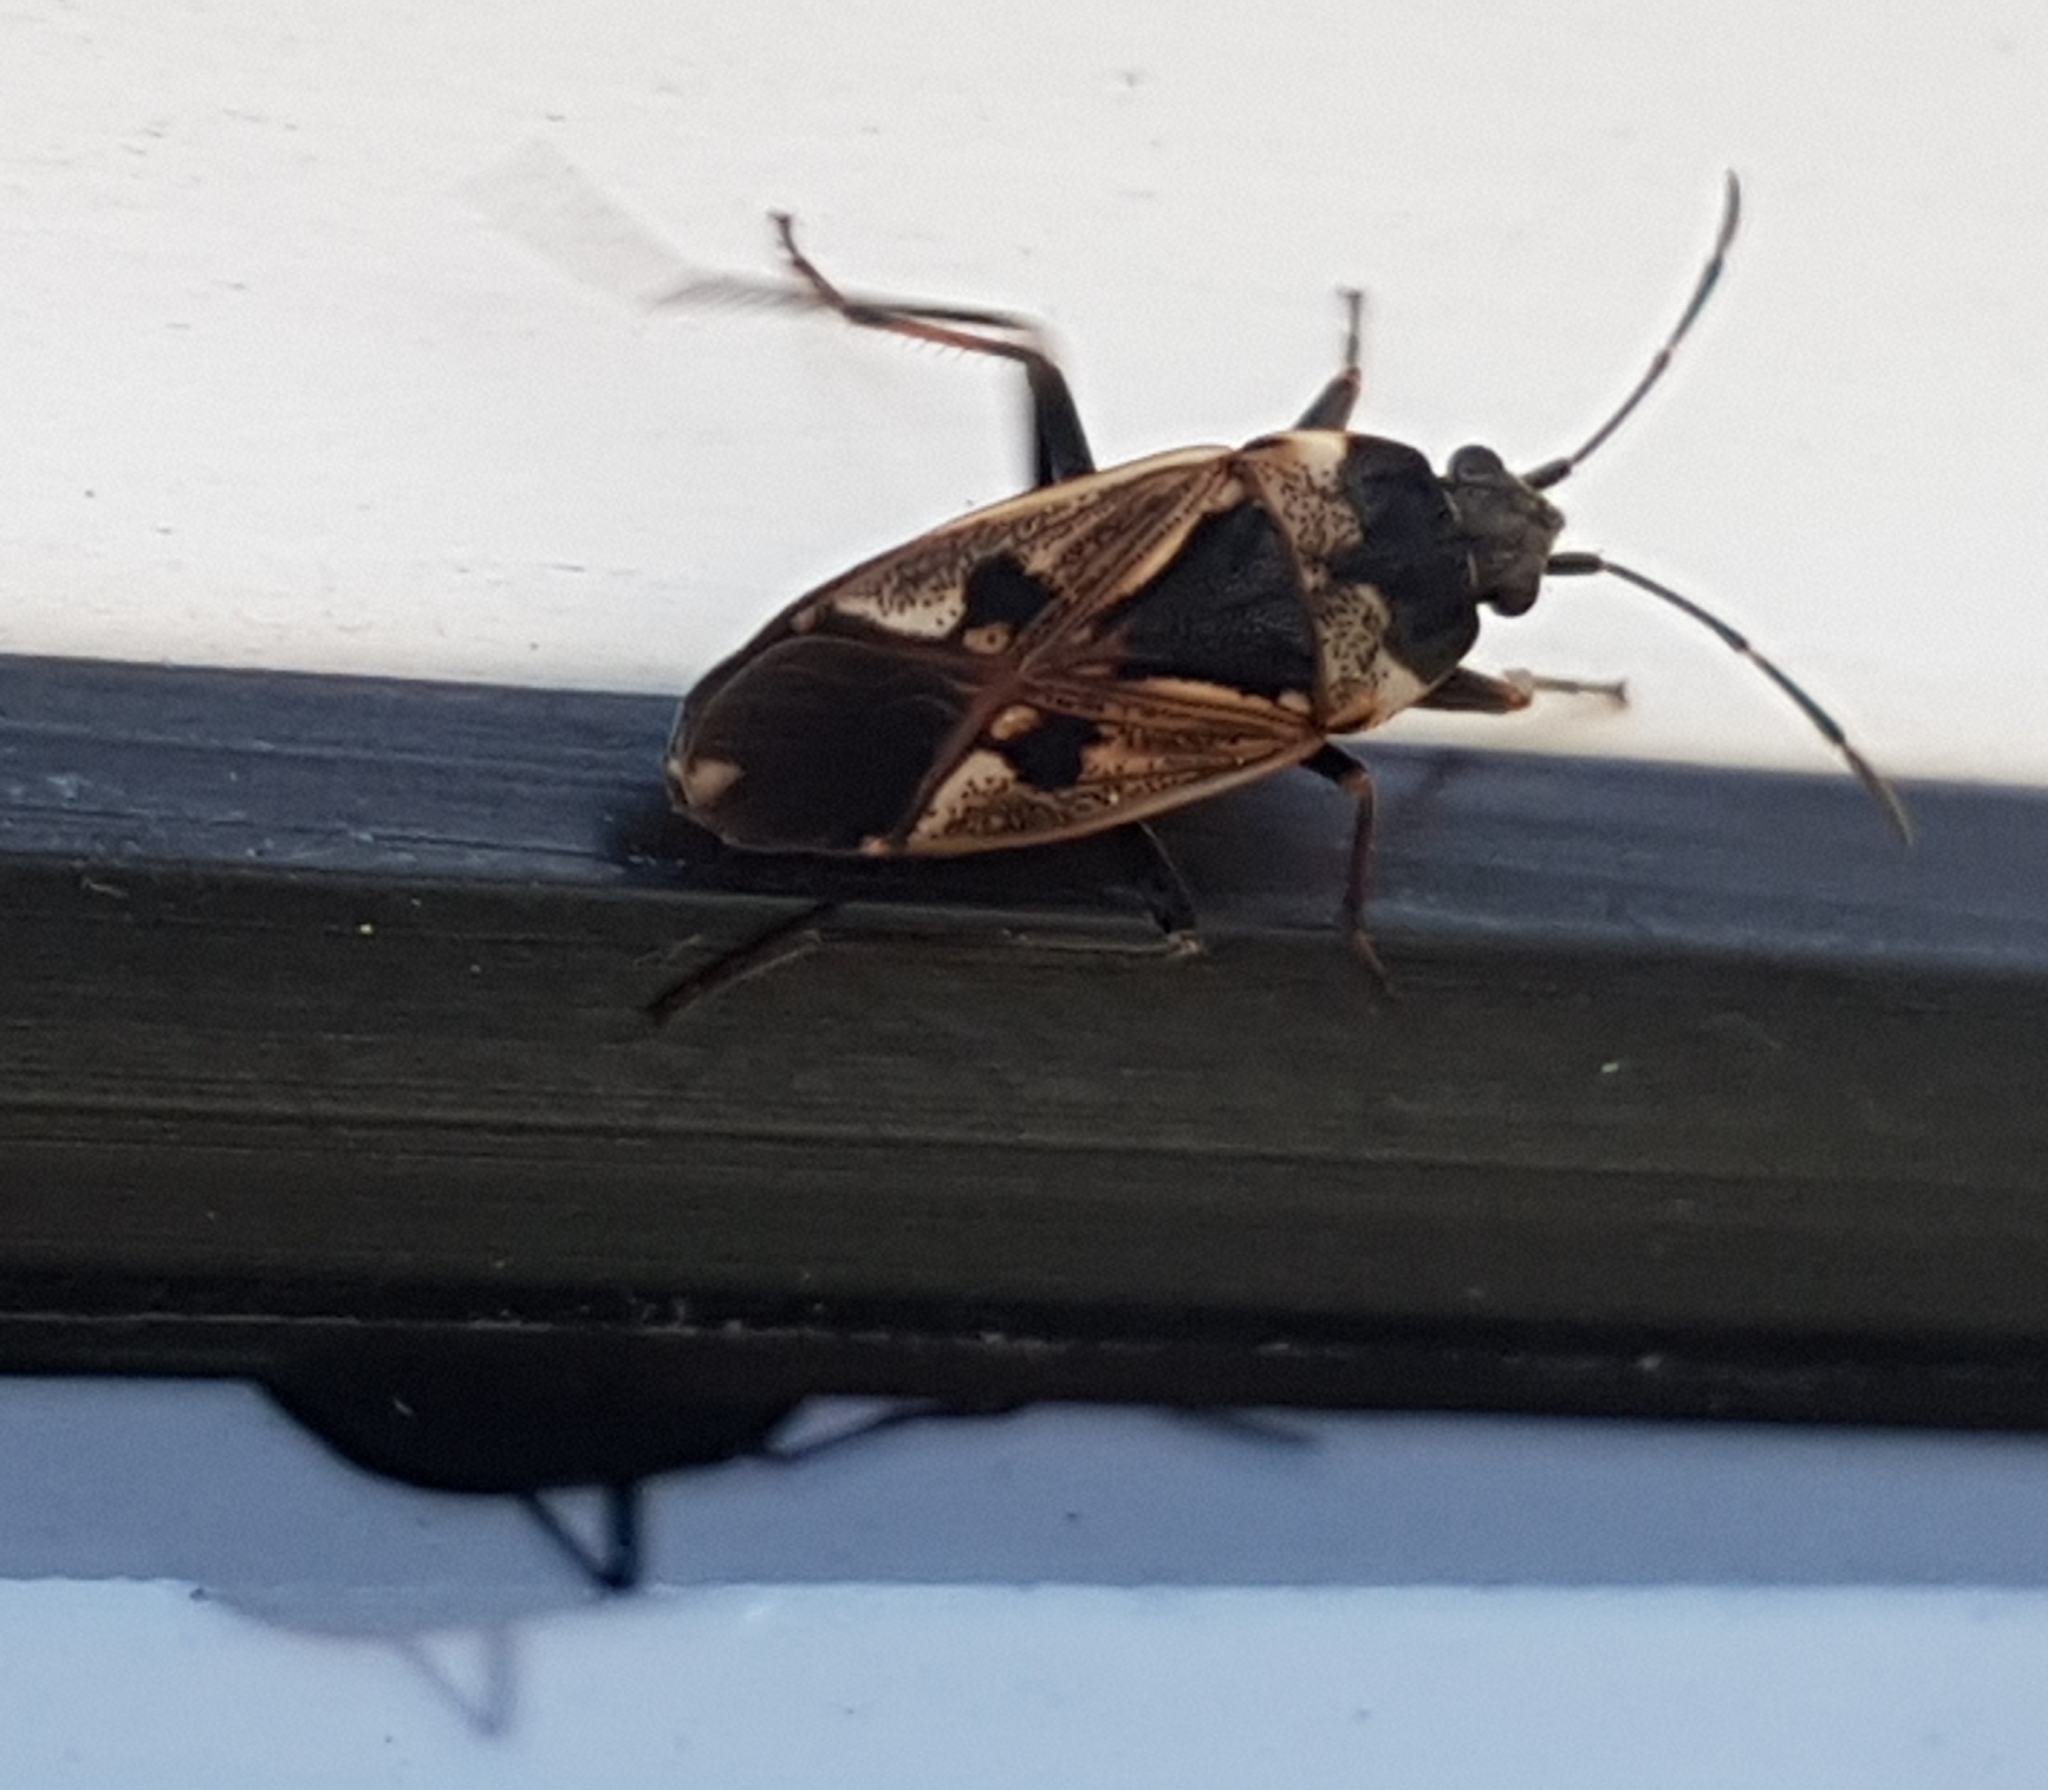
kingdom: Animalia
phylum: Arthropoda
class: Insecta
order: Hemiptera
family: Rhyparochromidae
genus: Rhyparochromus
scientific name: Rhyparochromus vulgaris
